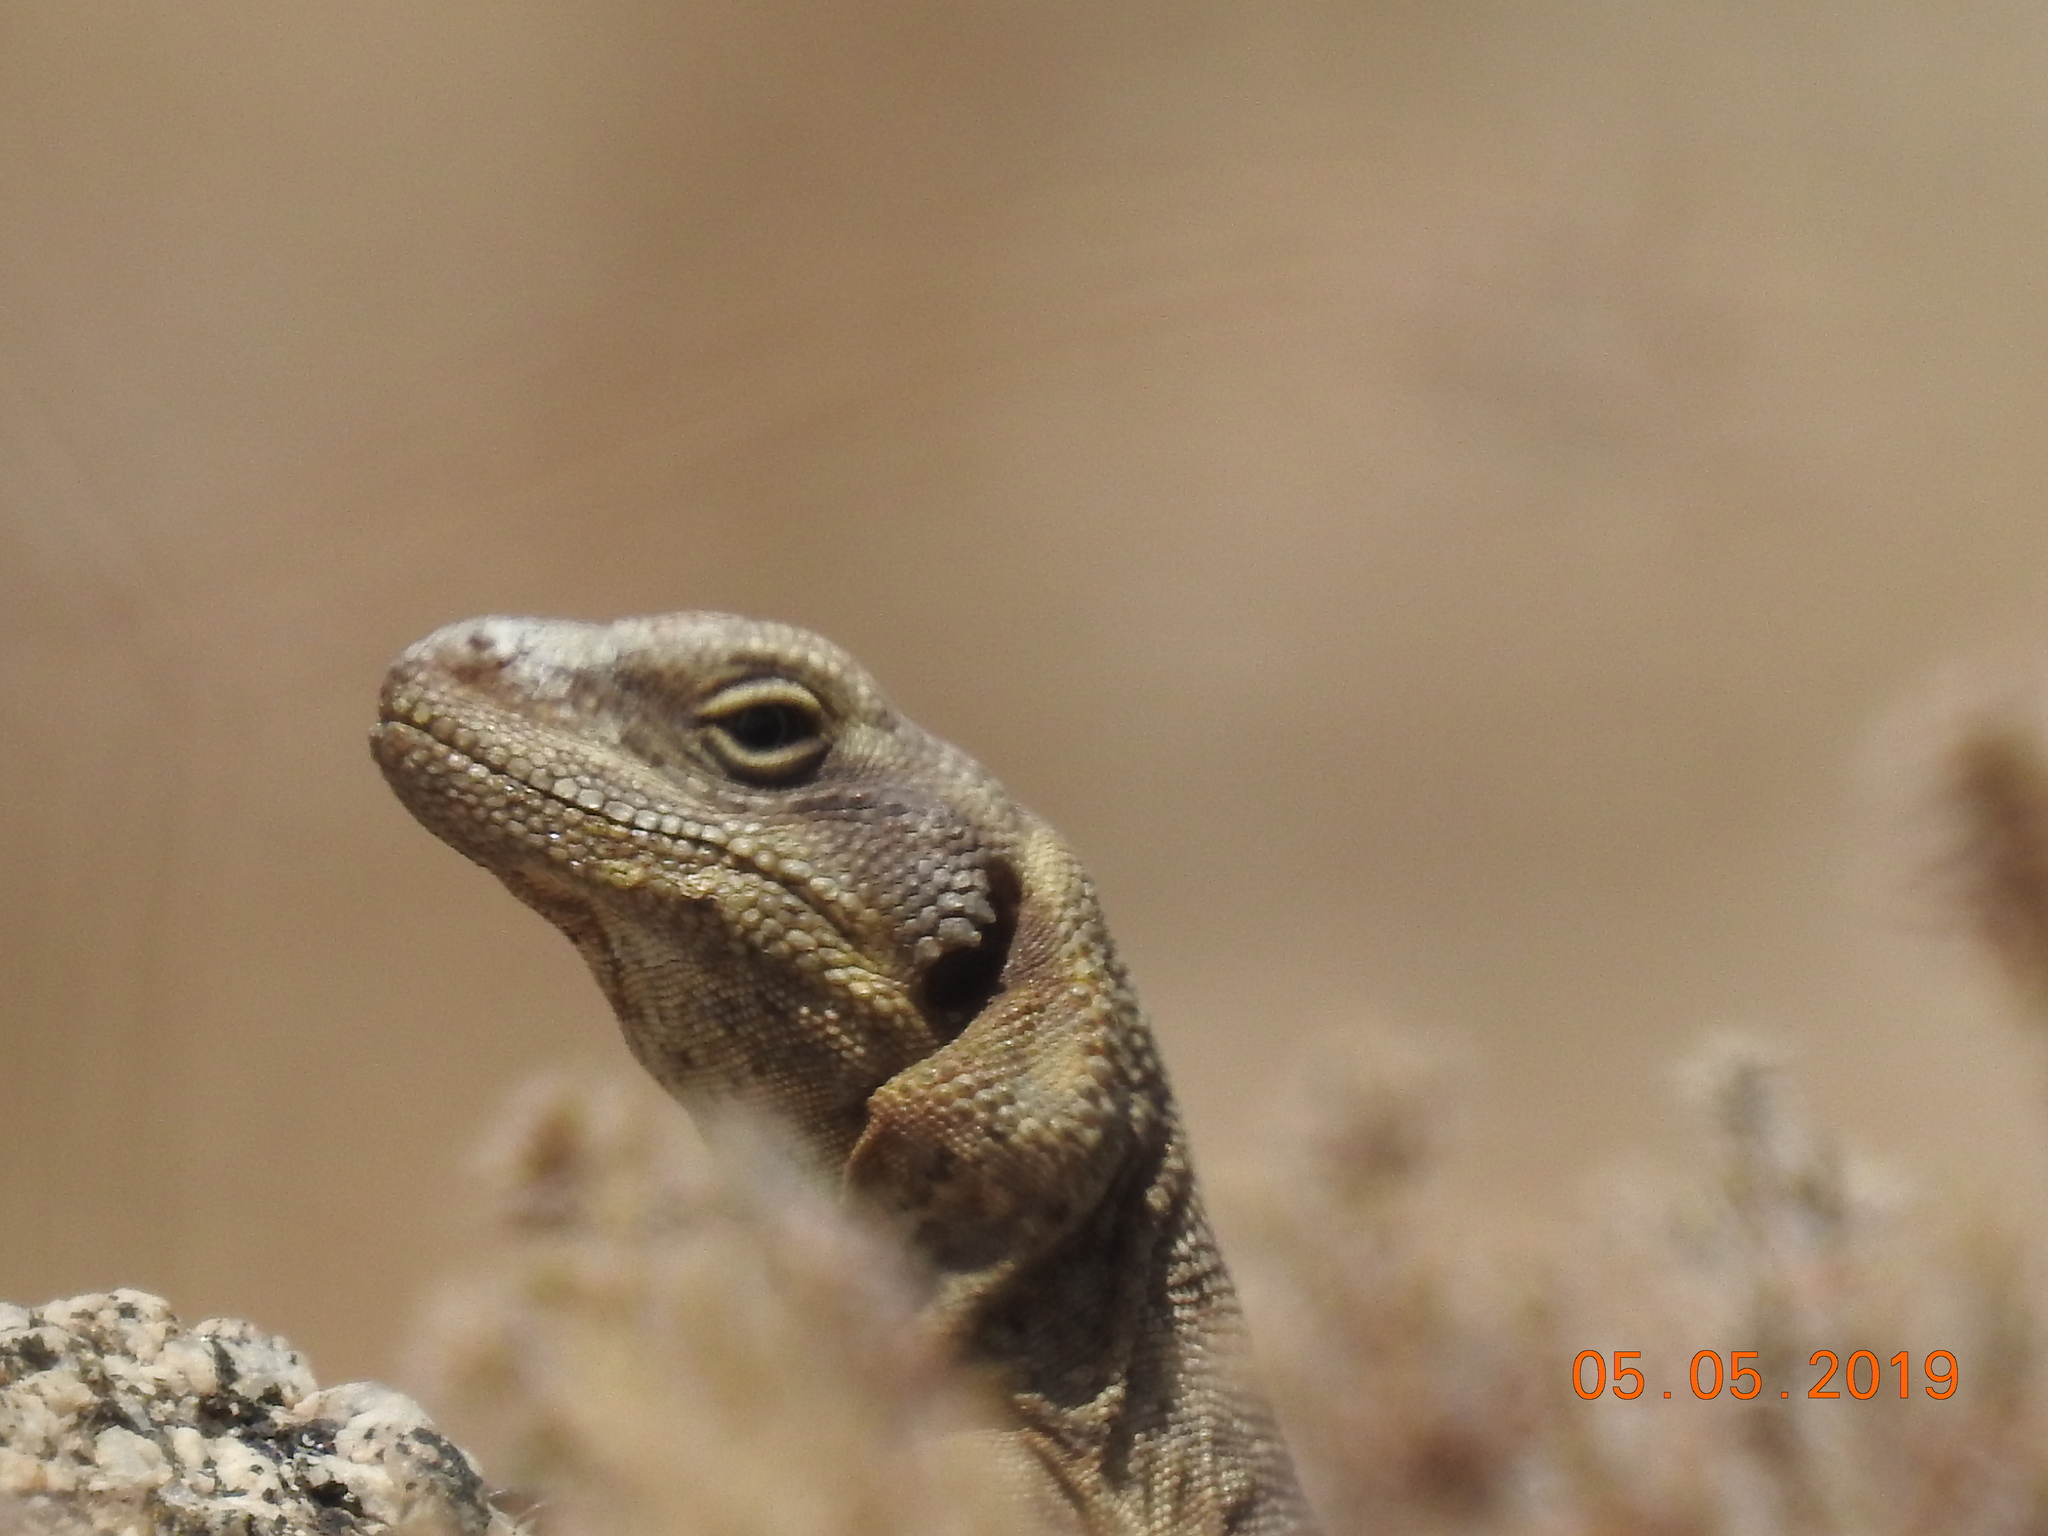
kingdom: Animalia
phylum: Chordata
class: Squamata
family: Iguanidae
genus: Sauromalus
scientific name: Sauromalus ater
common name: Northern chuckwalla
